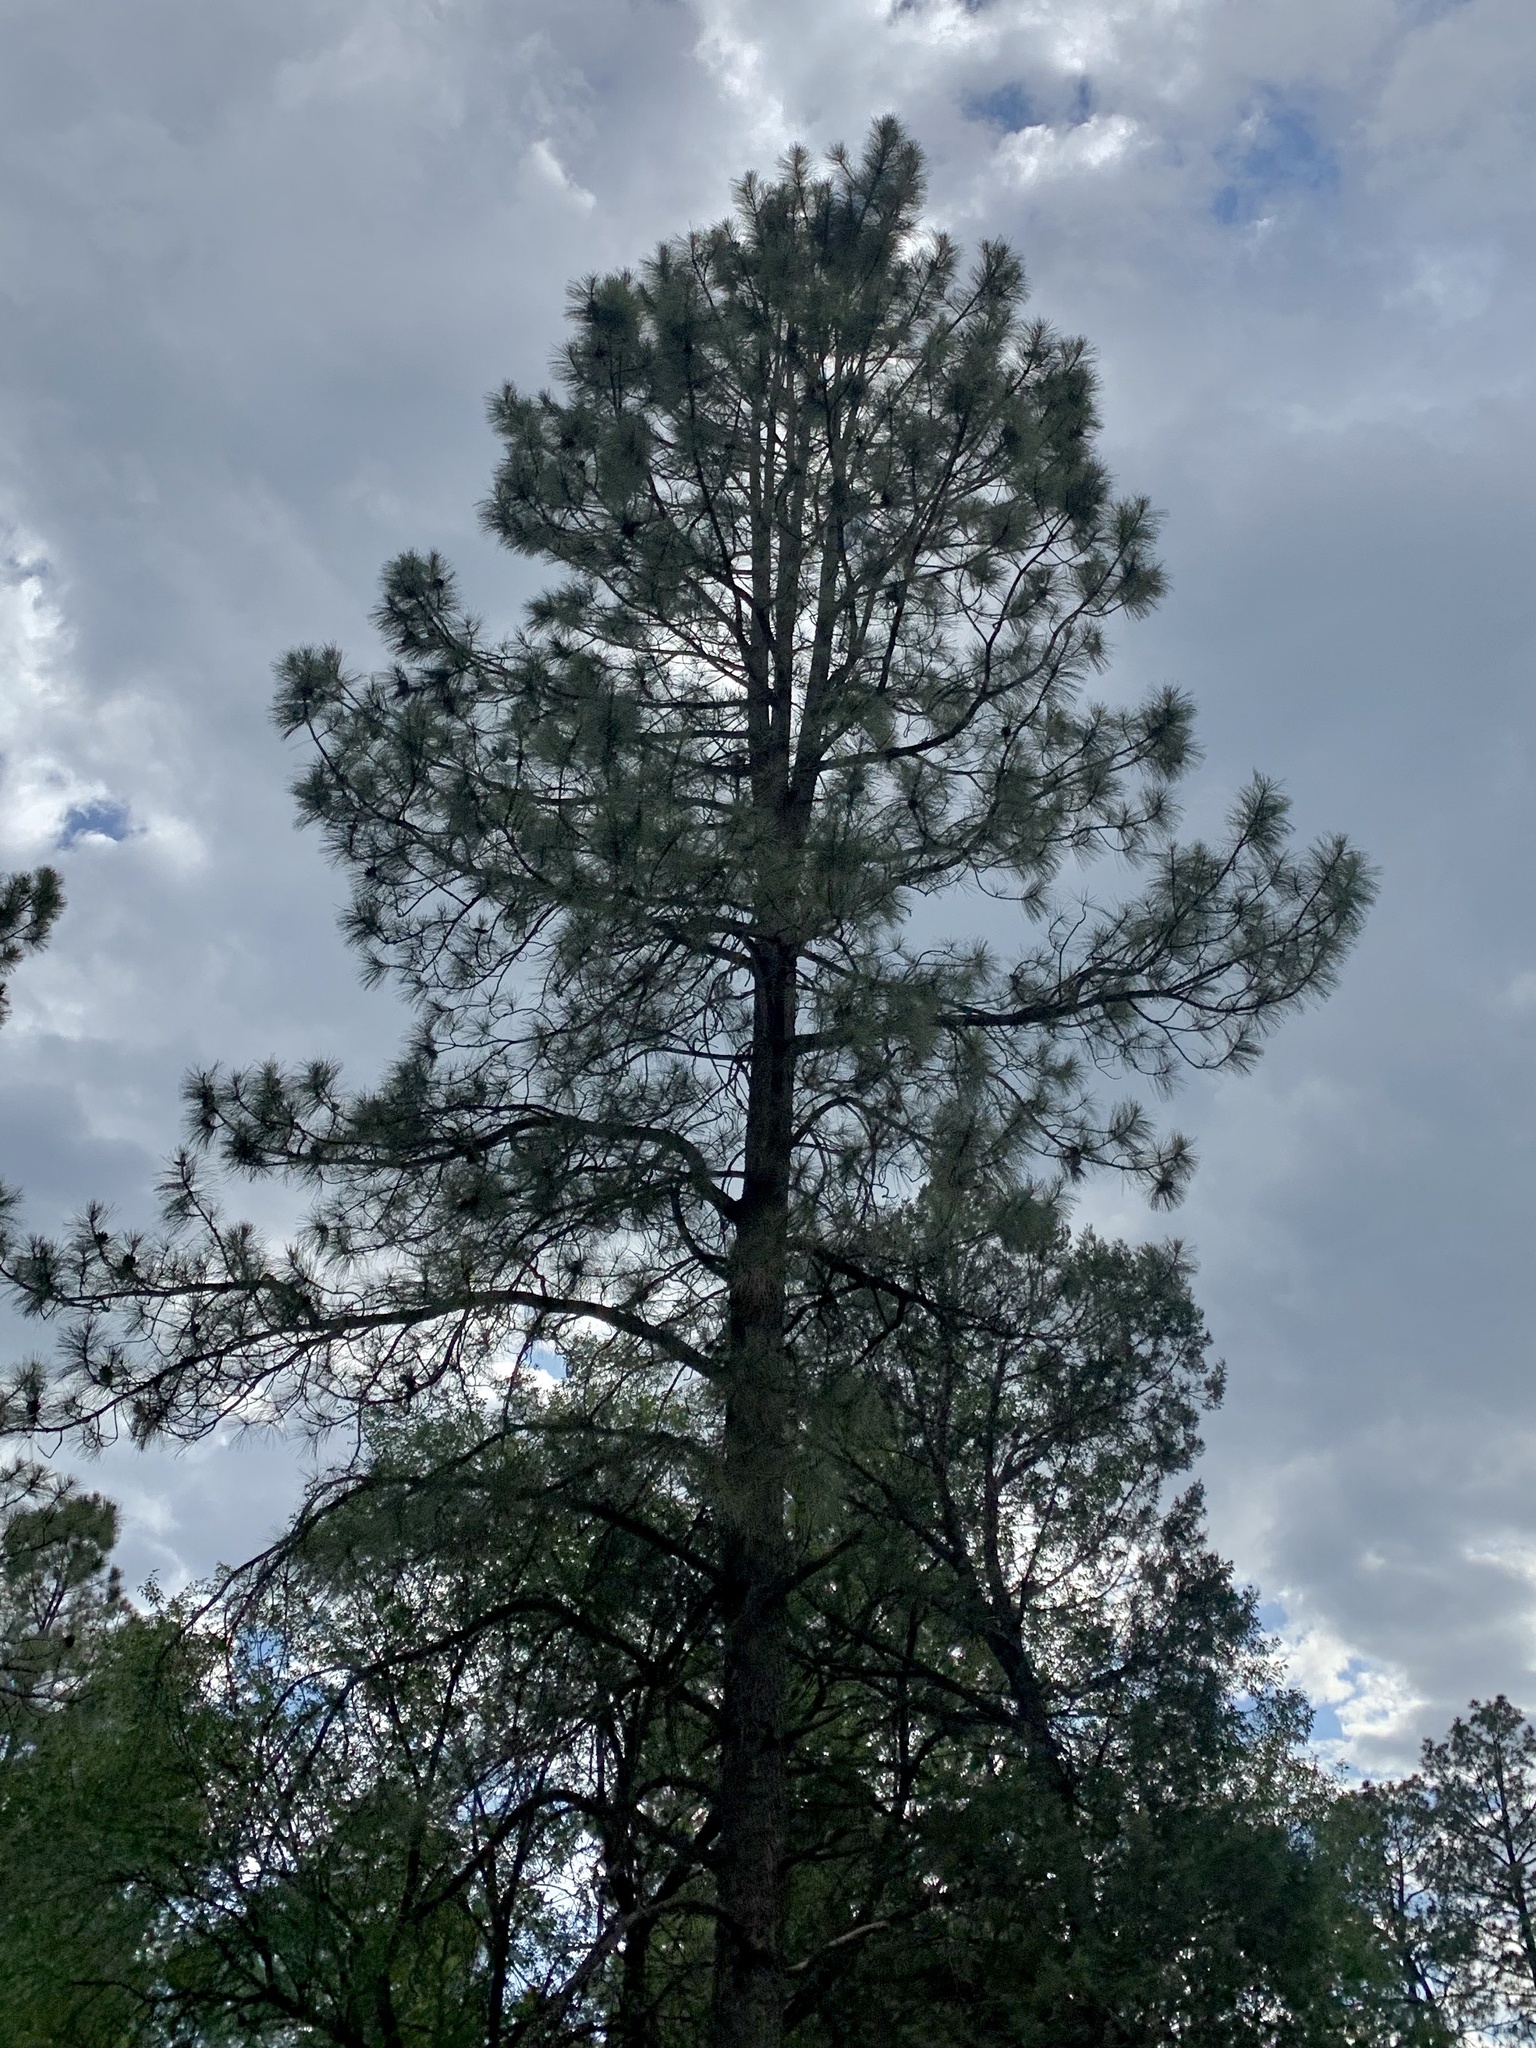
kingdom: Plantae
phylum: Tracheophyta
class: Pinopsida
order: Pinales
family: Pinaceae
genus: Pinus
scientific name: Pinus ponderosa
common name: Western yellow-pine
